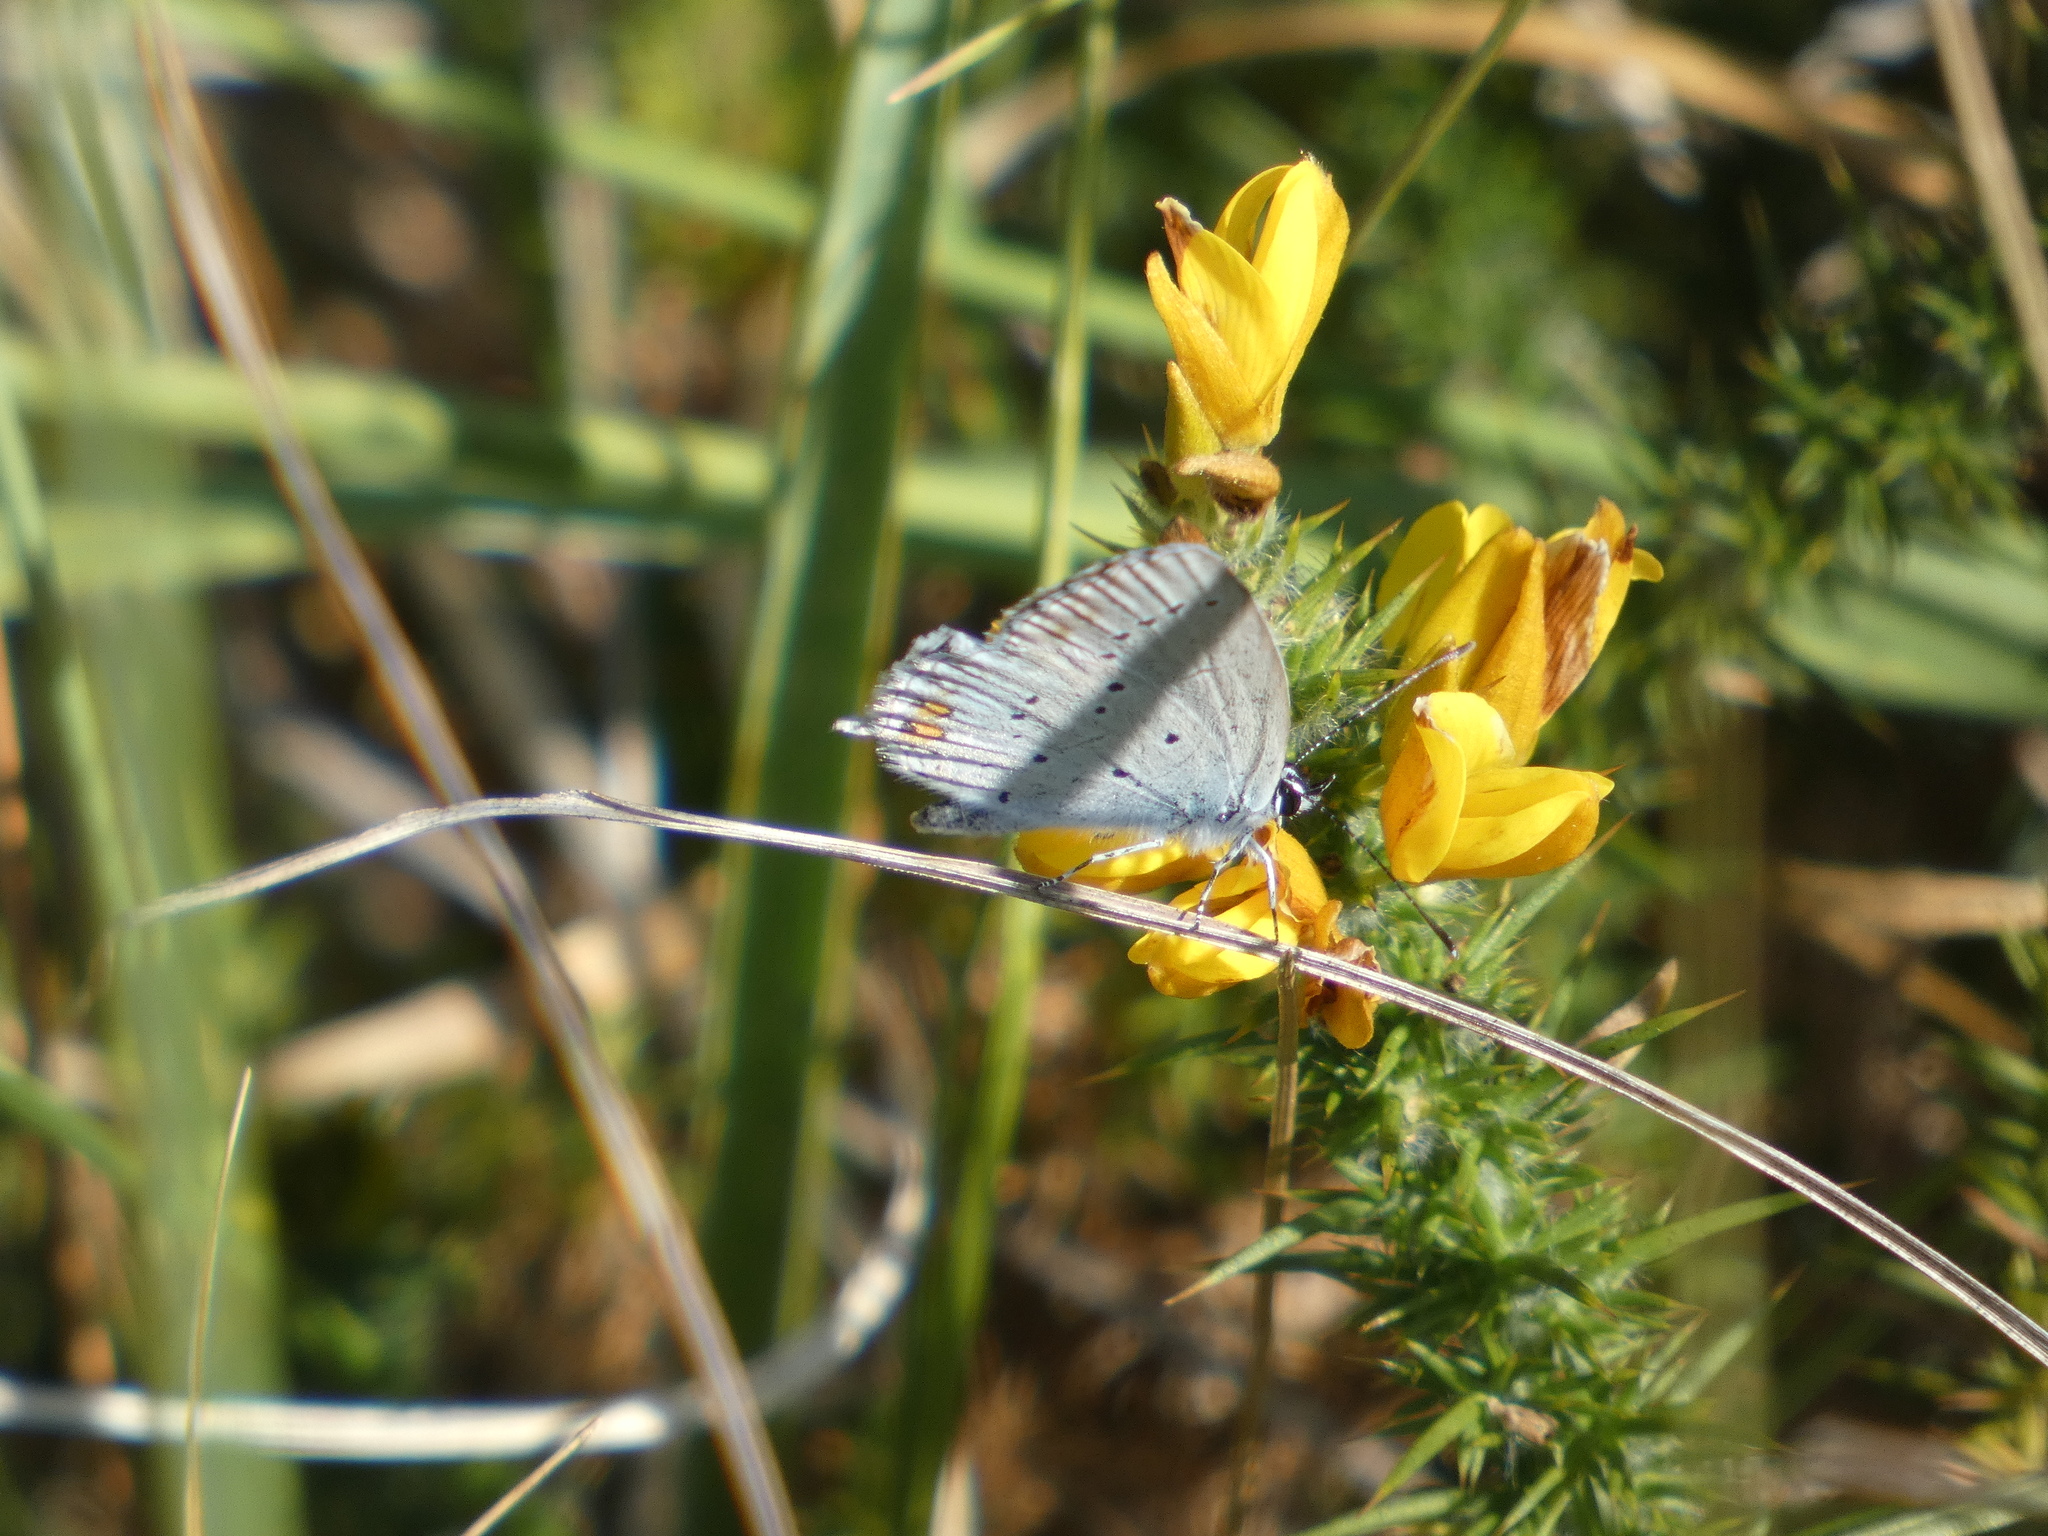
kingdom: Animalia
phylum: Arthropoda
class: Insecta
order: Lepidoptera
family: Lycaenidae
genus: Elkalyce
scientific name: Elkalyce argiades
